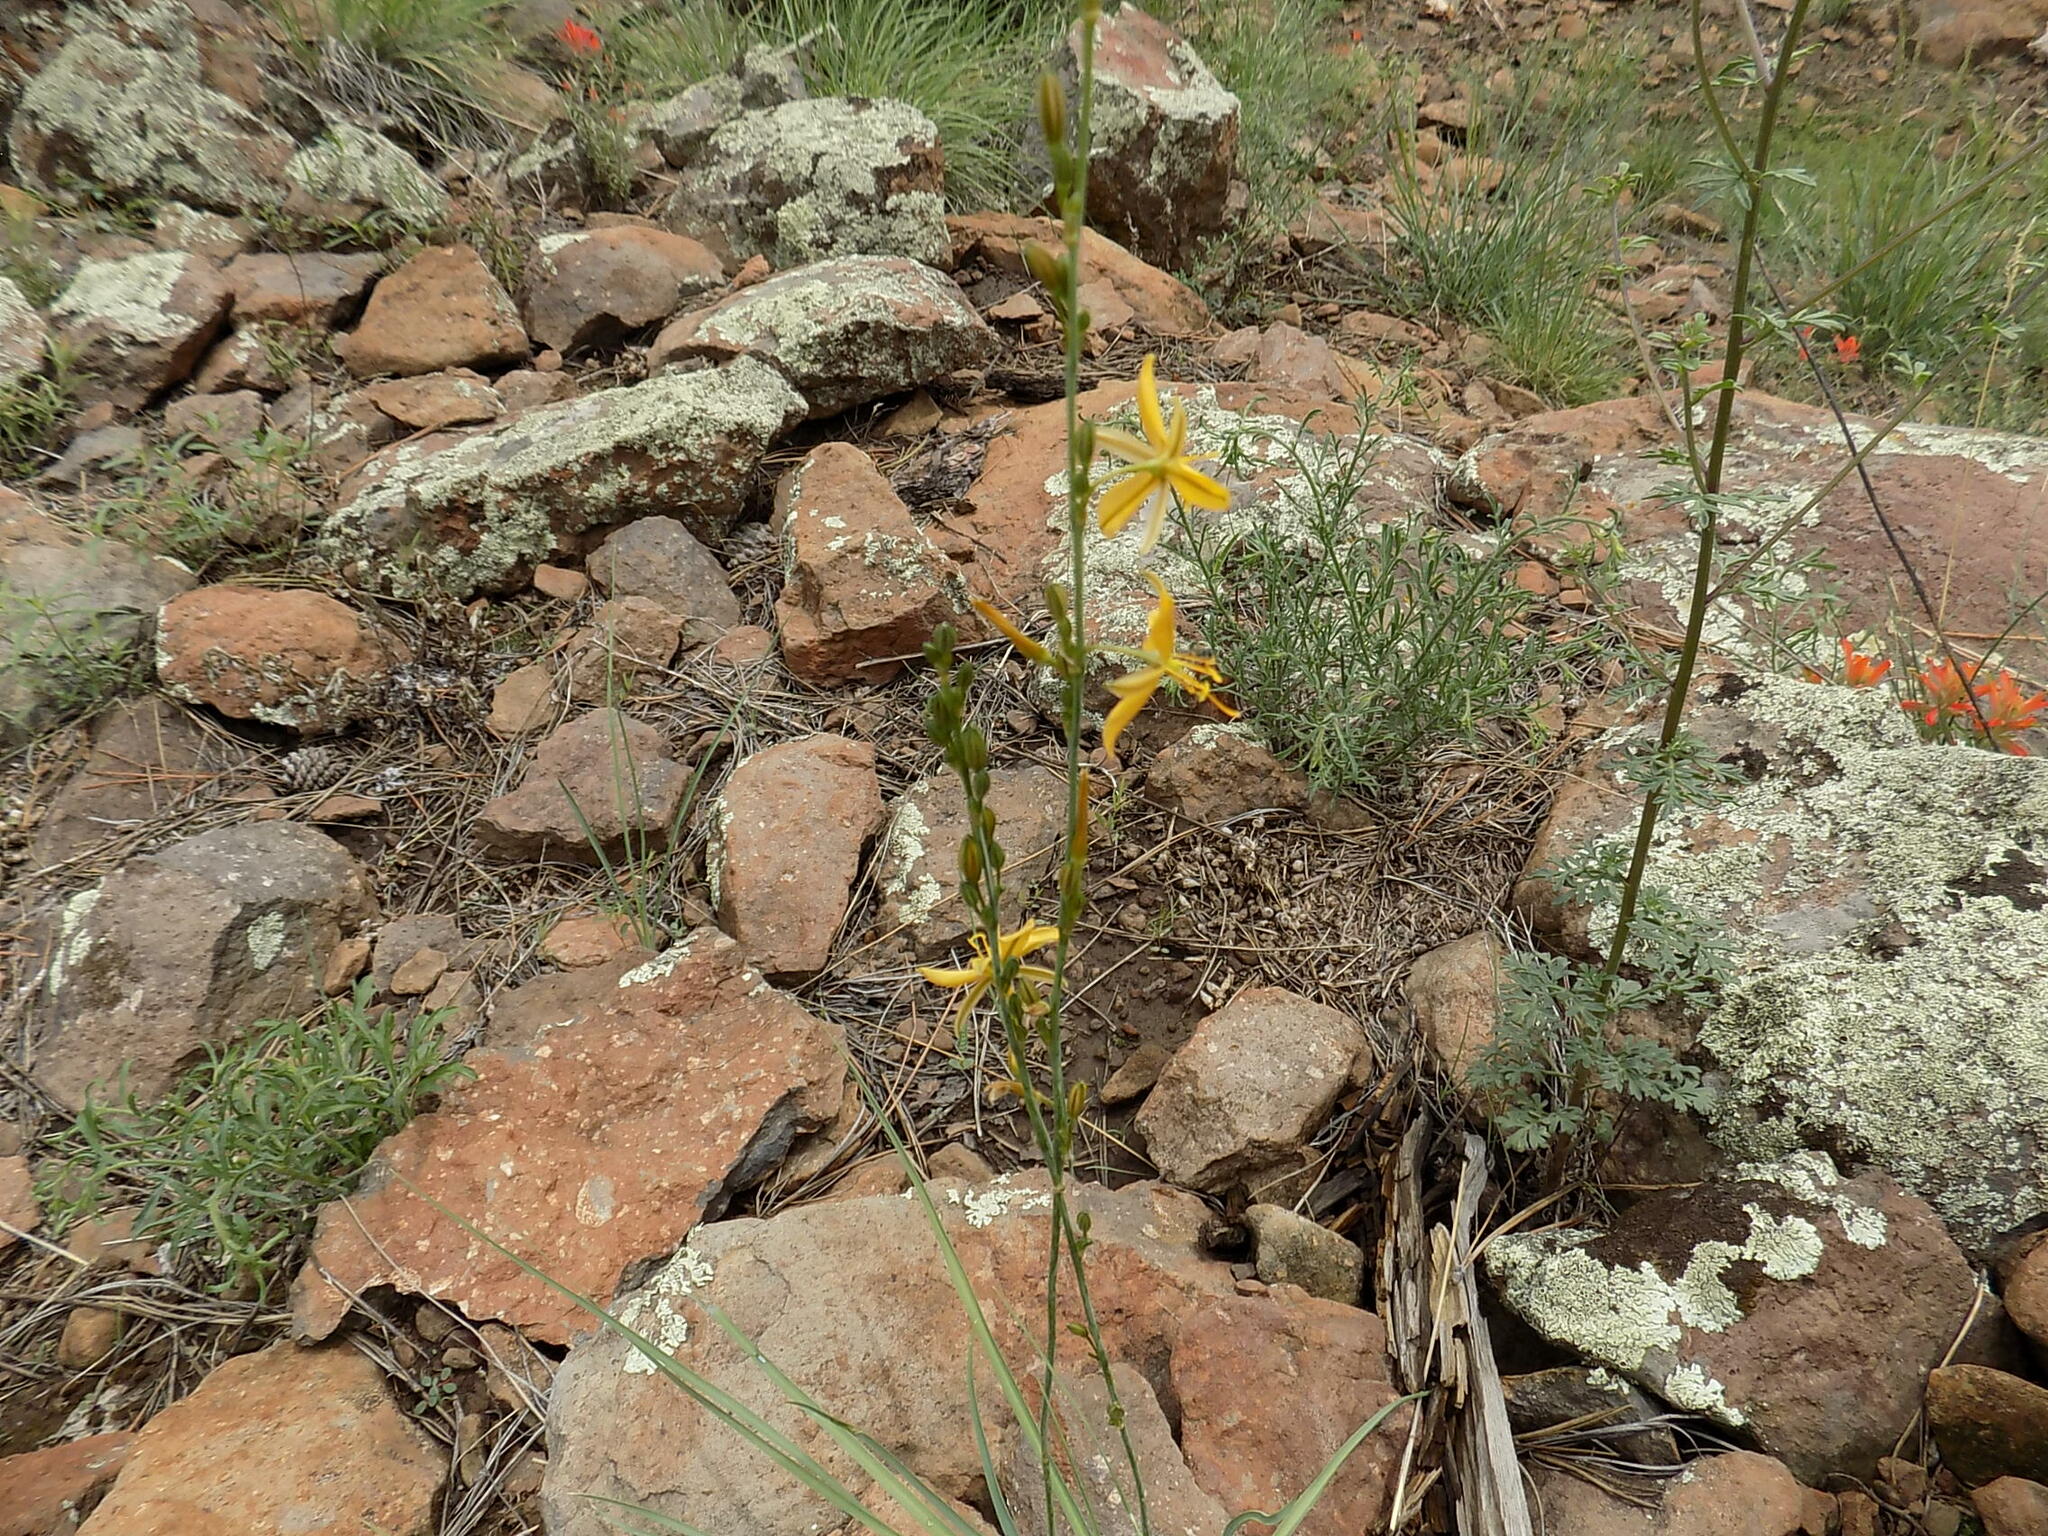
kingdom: Plantae
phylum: Tracheophyta
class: Liliopsida
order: Asparagales
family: Asparagaceae
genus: Echeandia
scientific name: Echeandia flavescens
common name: Amberlily
